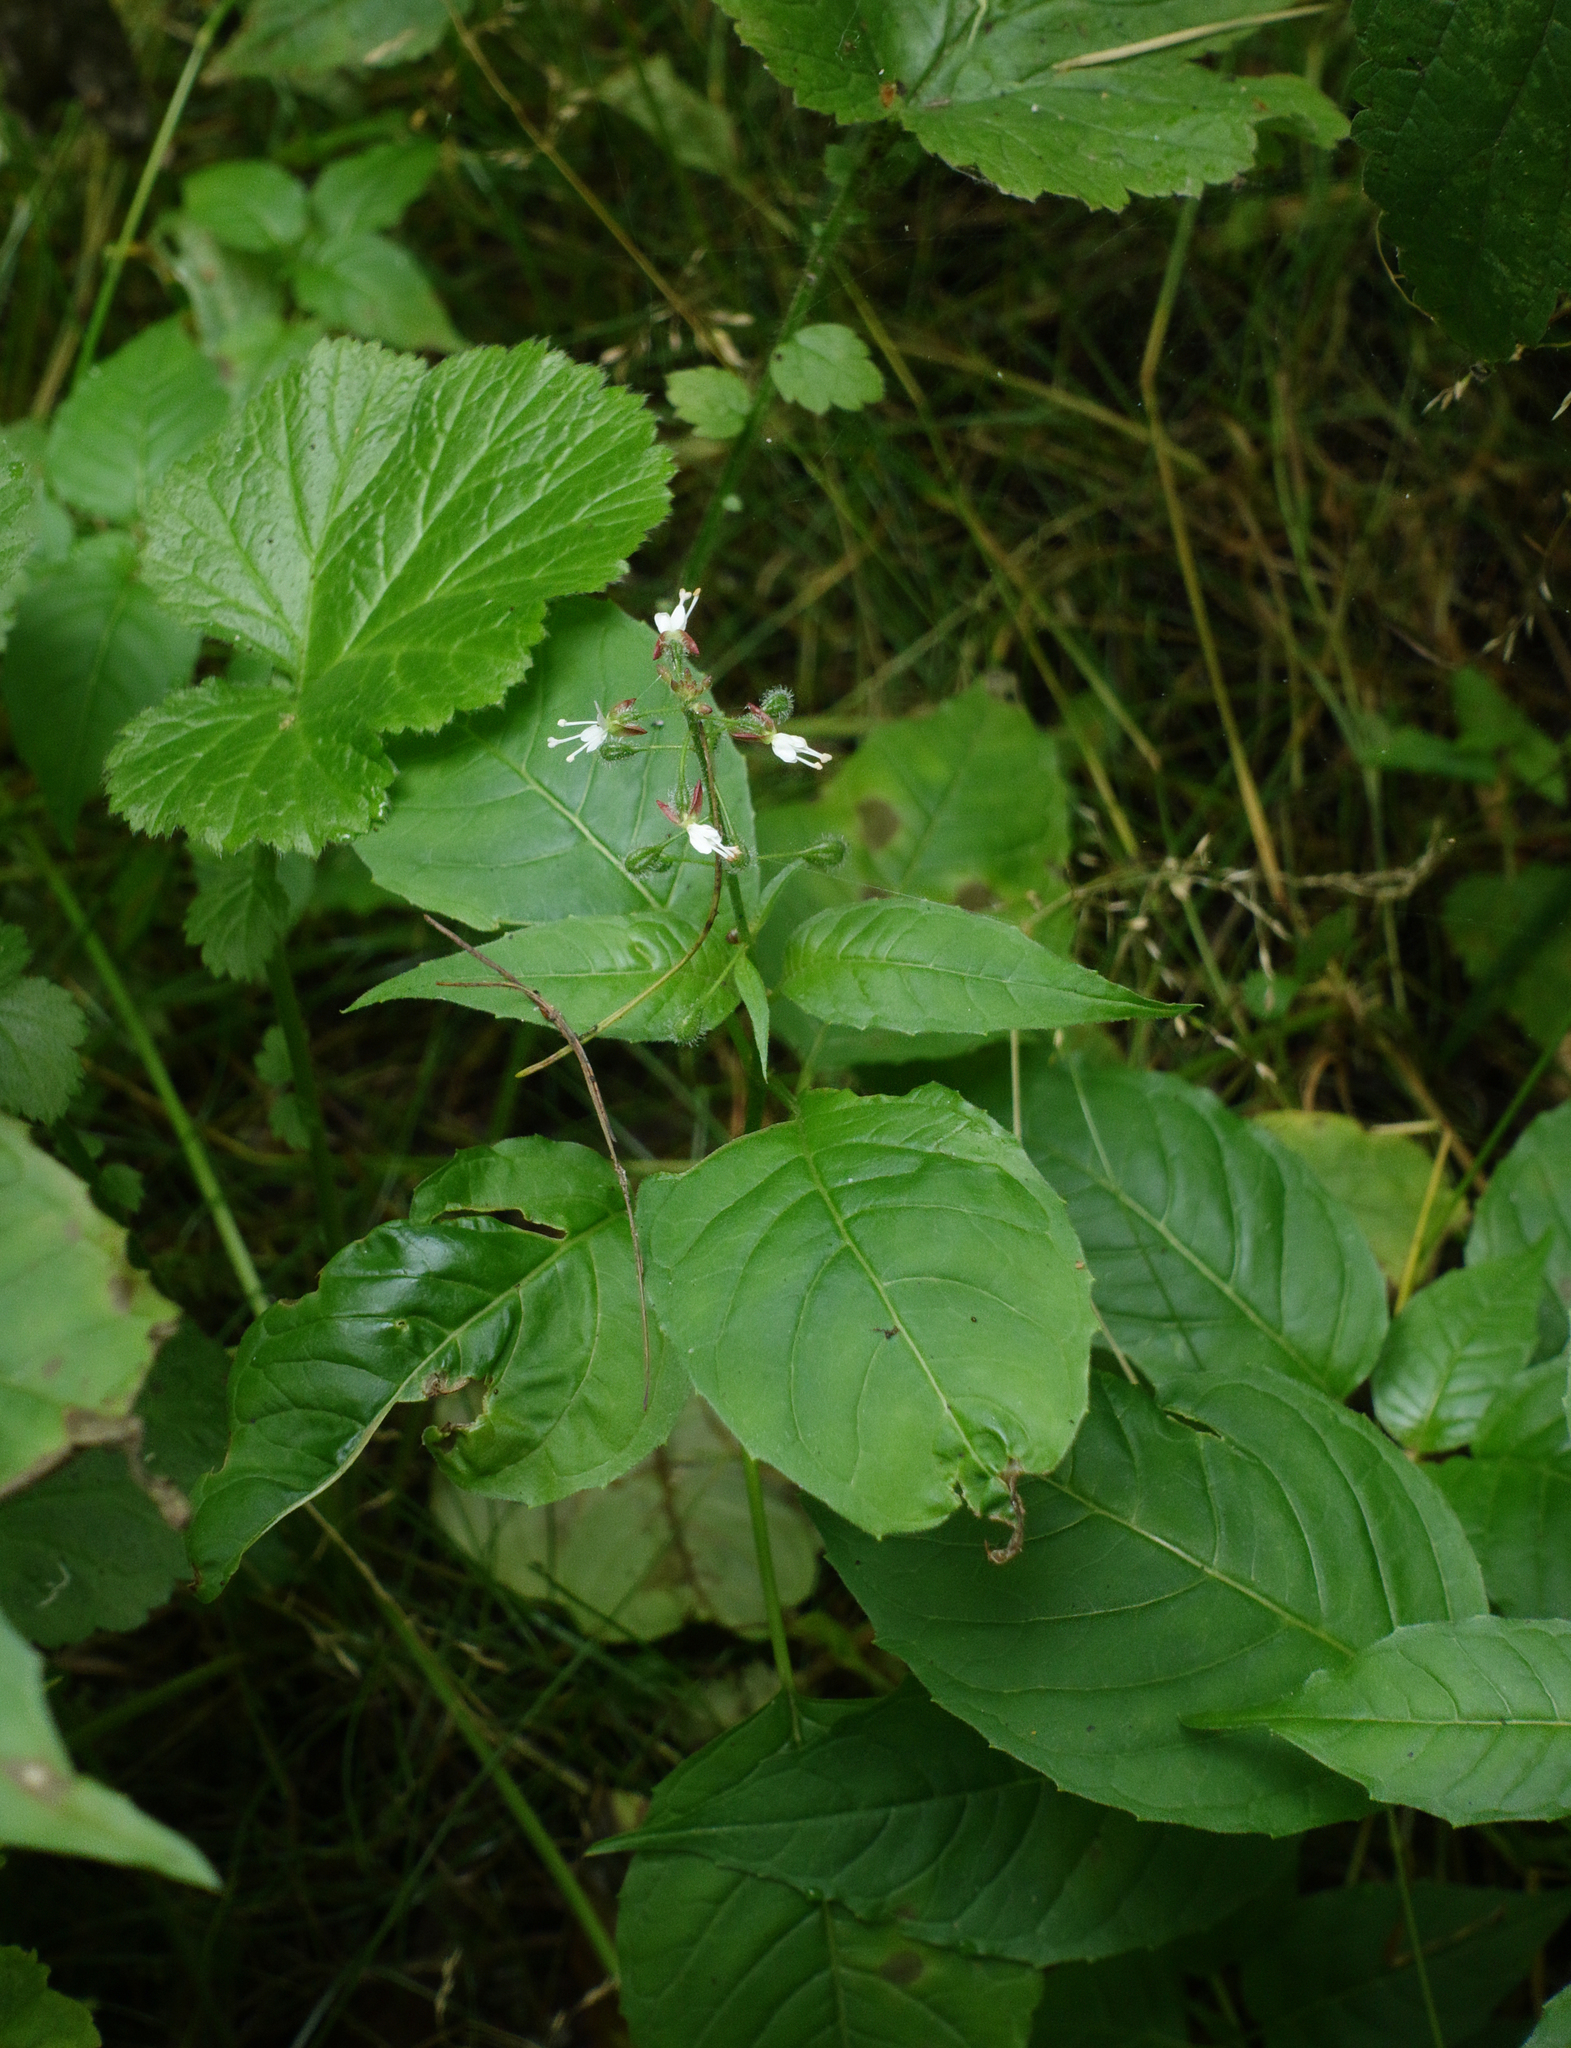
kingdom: Plantae
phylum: Tracheophyta
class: Magnoliopsida
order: Myrtales
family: Onagraceae
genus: Circaea
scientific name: Circaea lutetiana
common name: Enchanter's-nightshade
